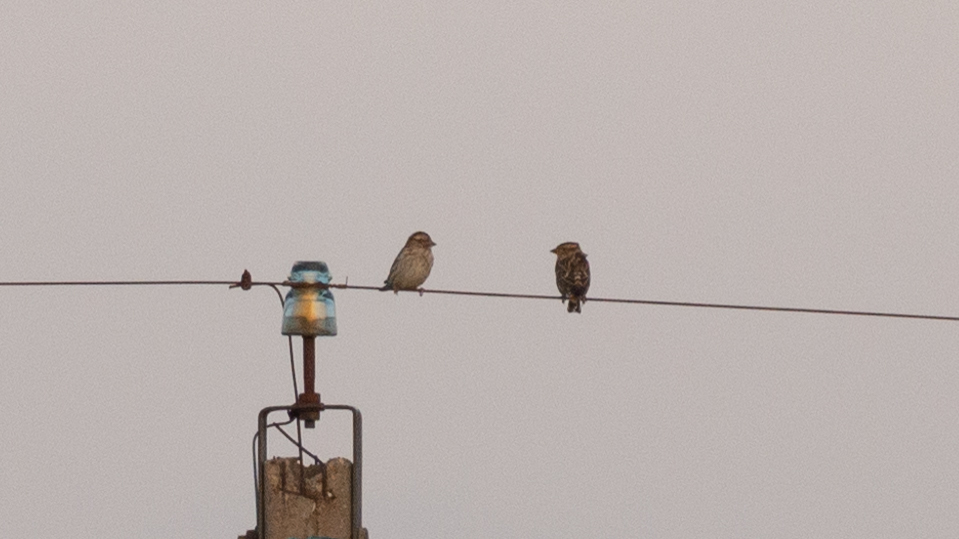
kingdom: Animalia
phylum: Chordata
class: Aves
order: Passeriformes
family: Passeridae
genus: Petronia
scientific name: Petronia petronia
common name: Rock sparrow
